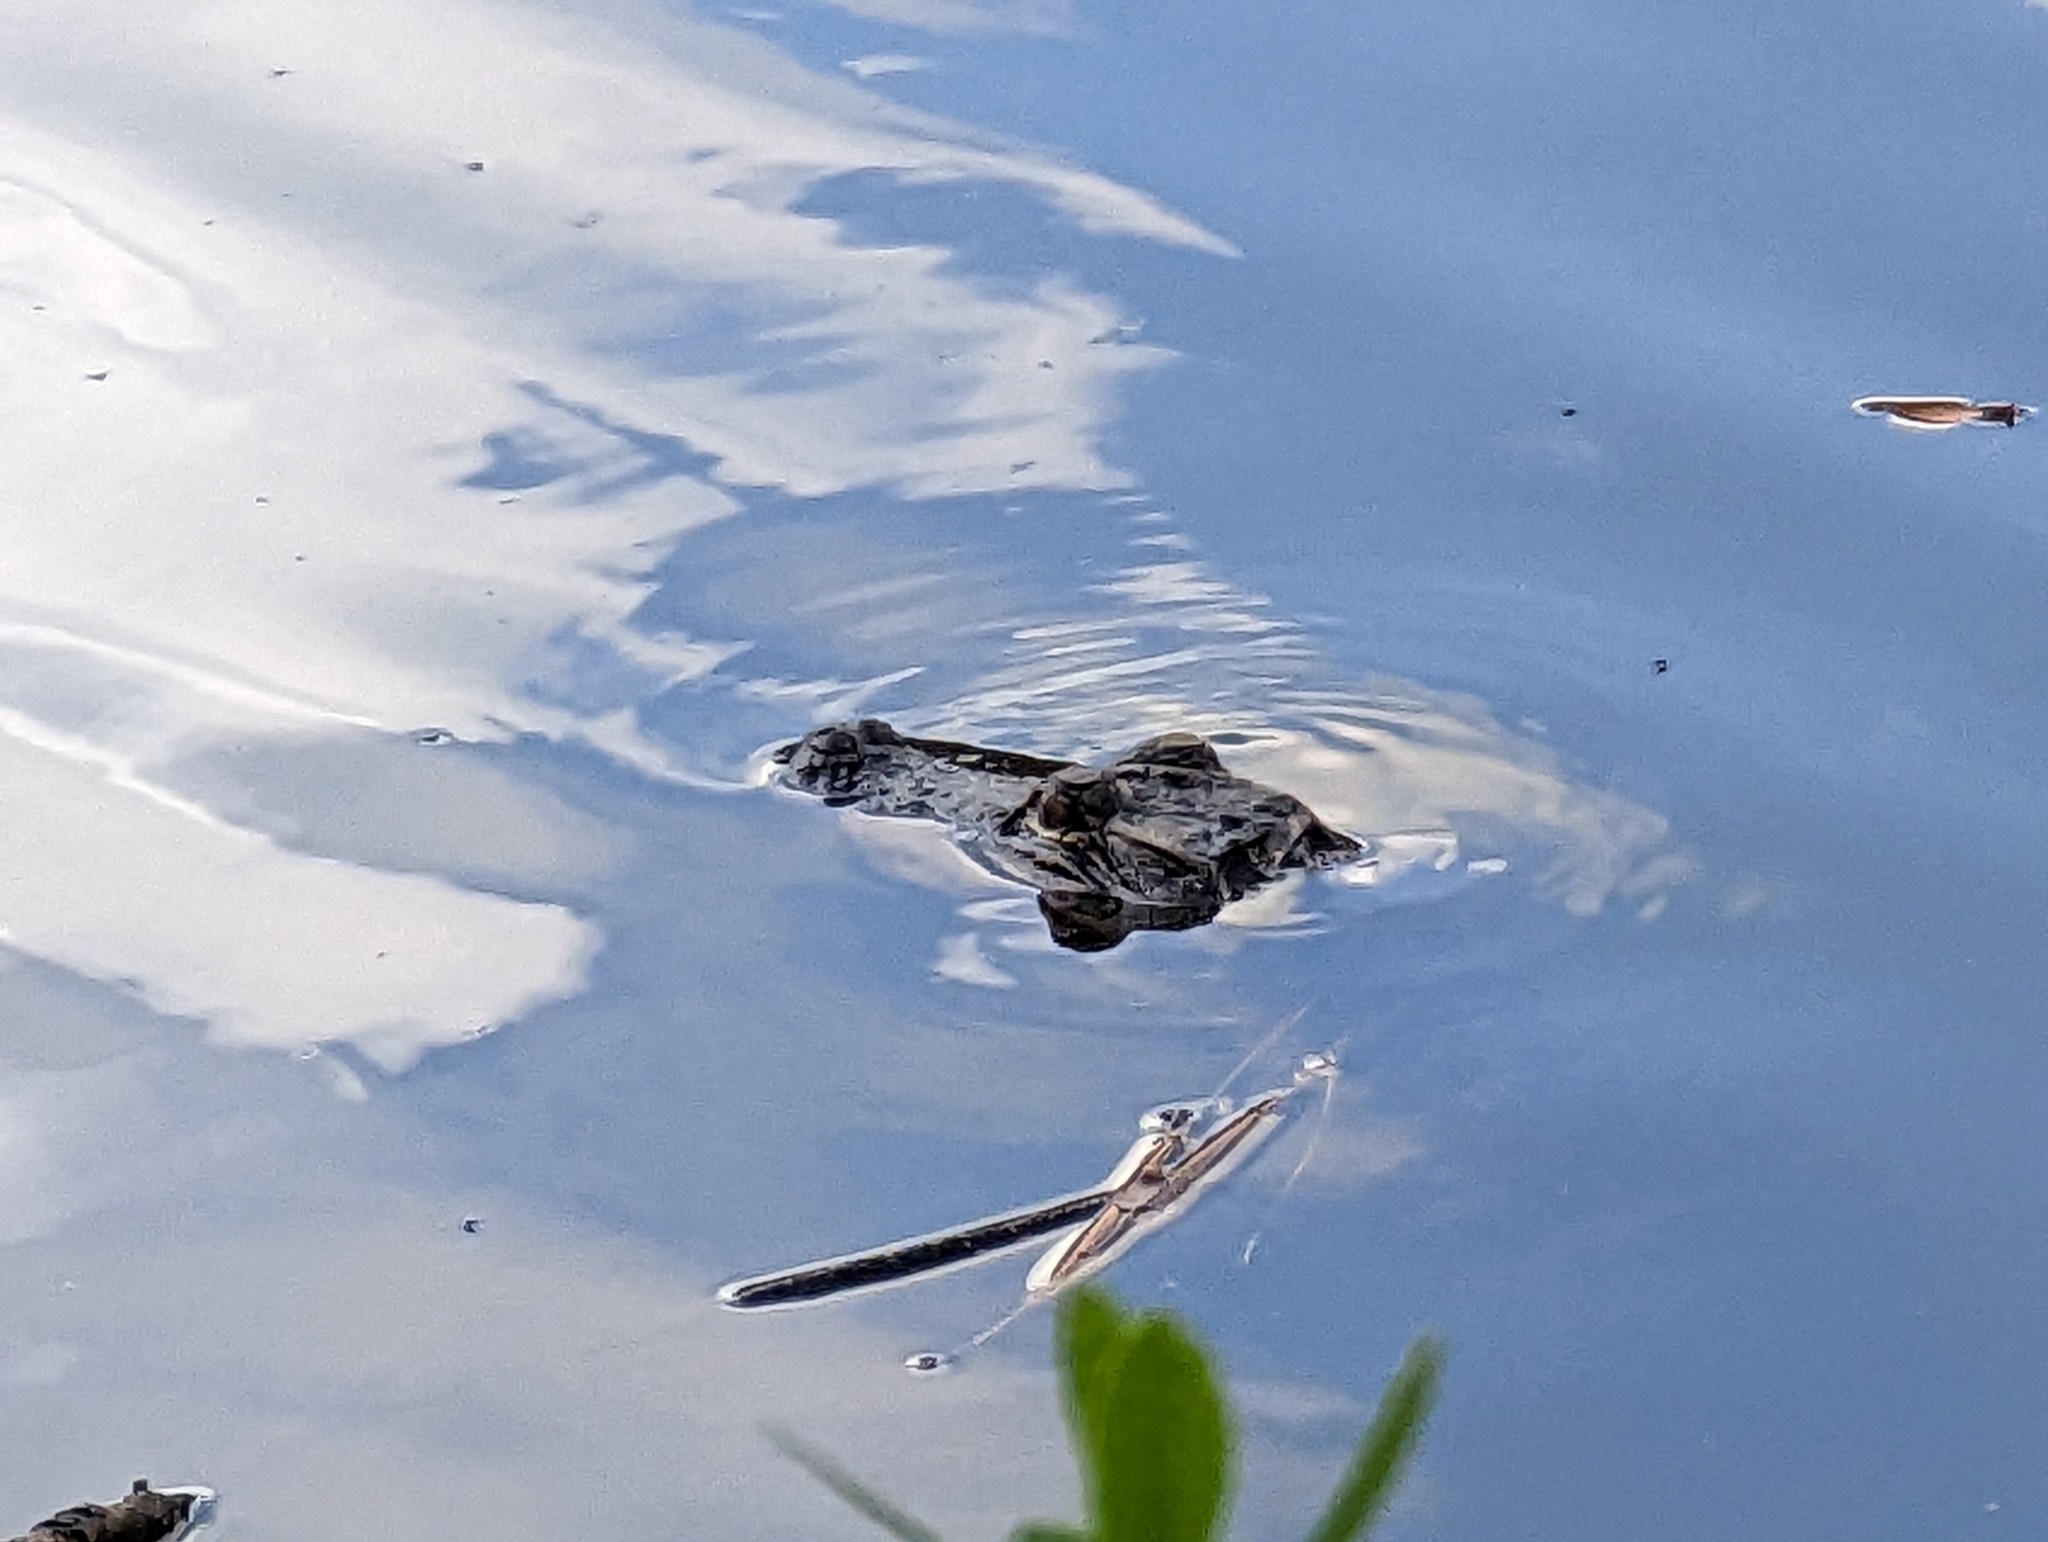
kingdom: Animalia
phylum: Chordata
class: Crocodylia
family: Alligatoridae
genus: Alligator
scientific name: Alligator mississippiensis
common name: American alligator
